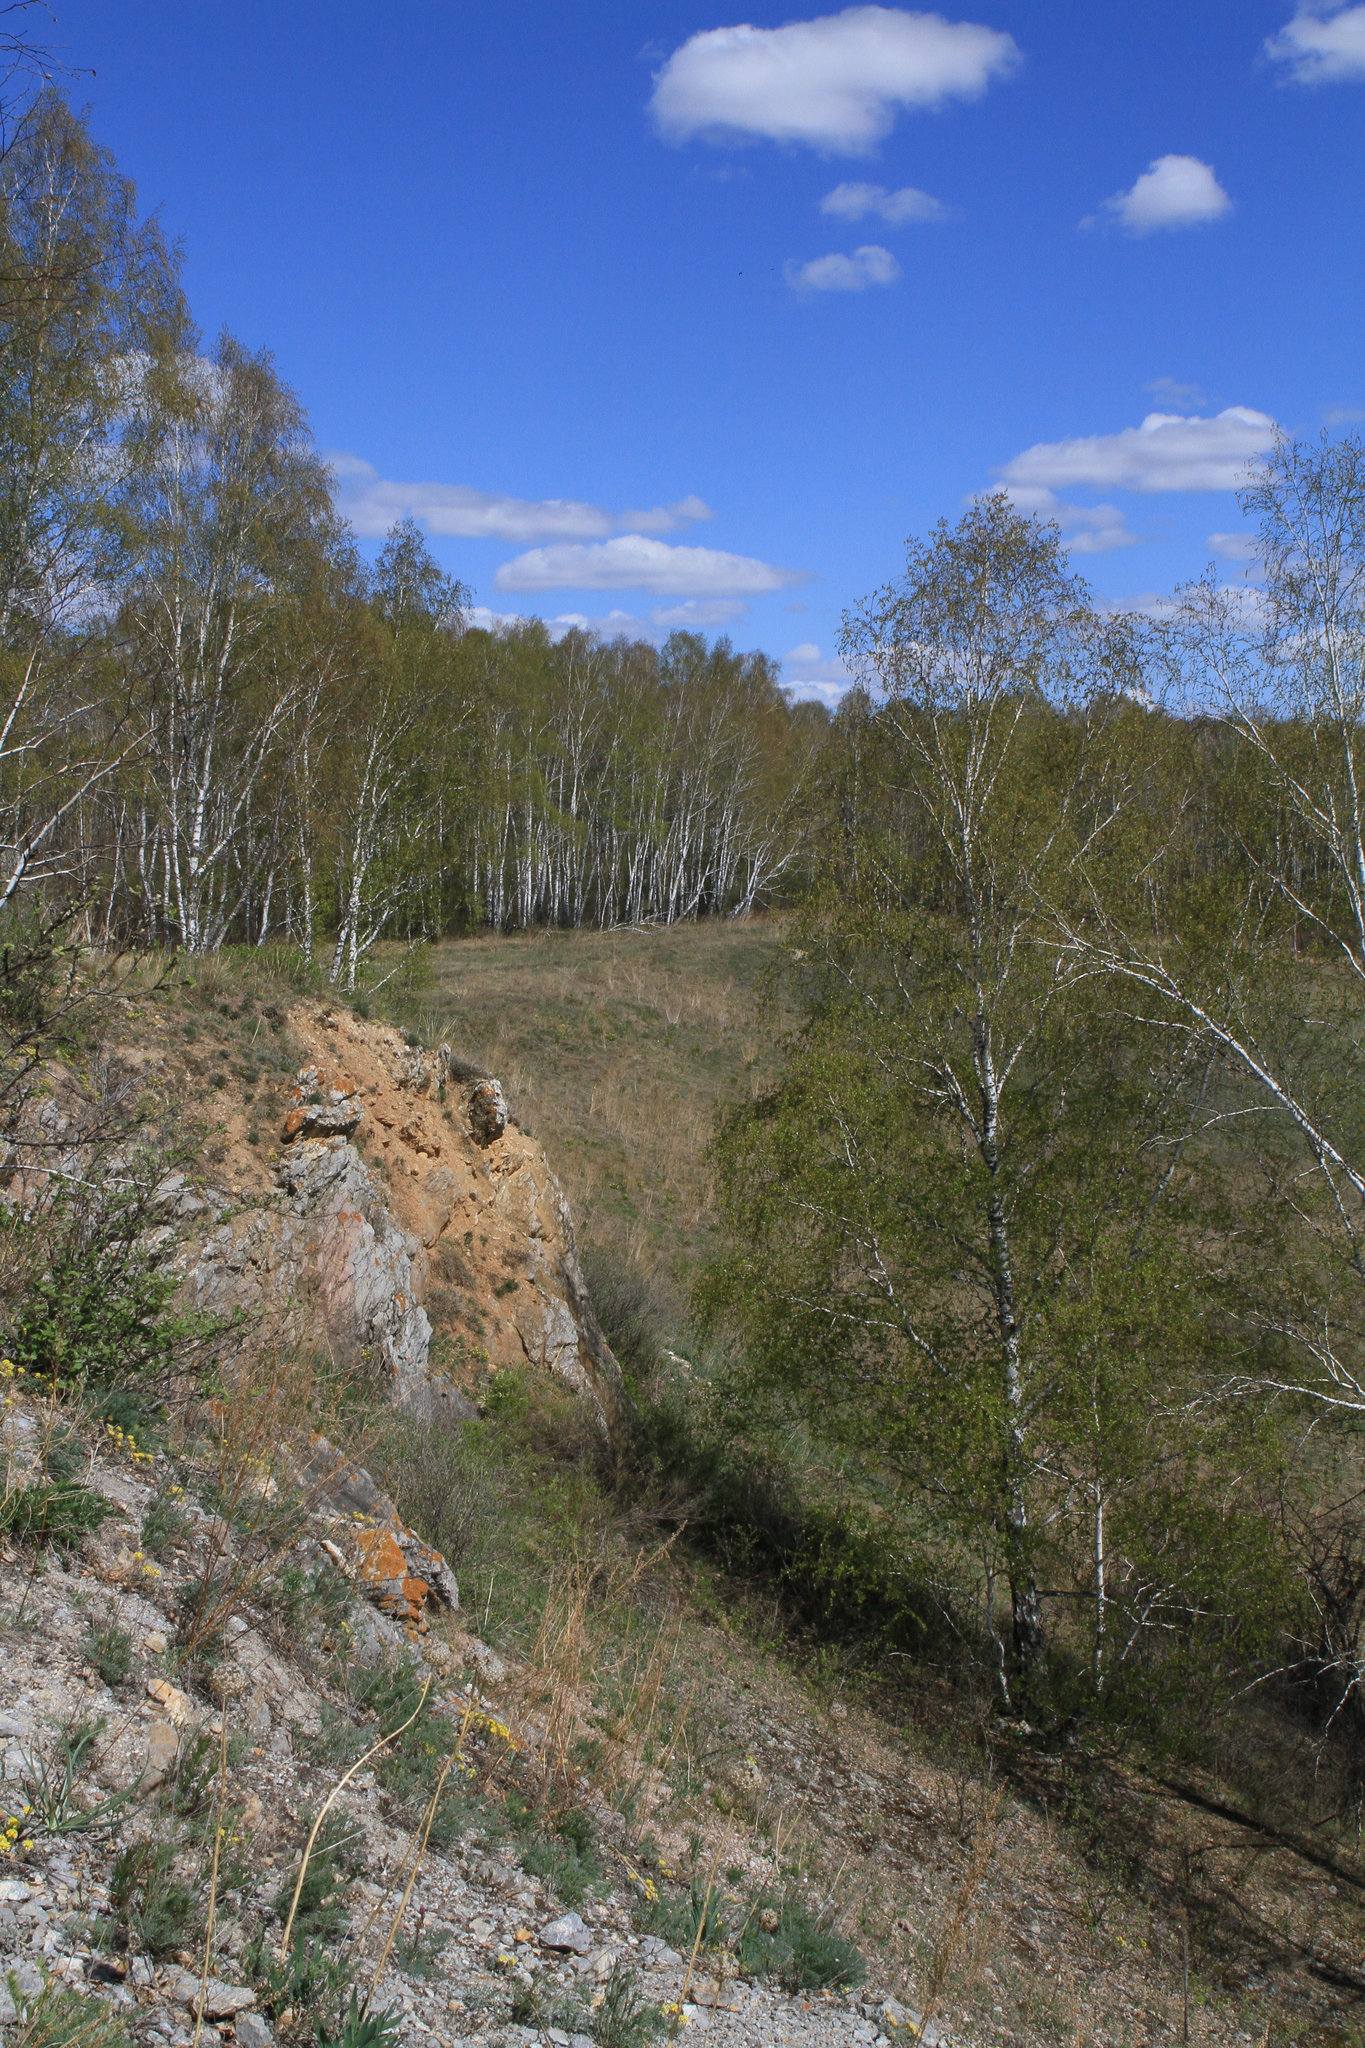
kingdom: Plantae
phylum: Tracheophyta
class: Magnoliopsida
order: Fagales
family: Betulaceae
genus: Betula
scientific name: Betula pendula
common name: Silver birch
